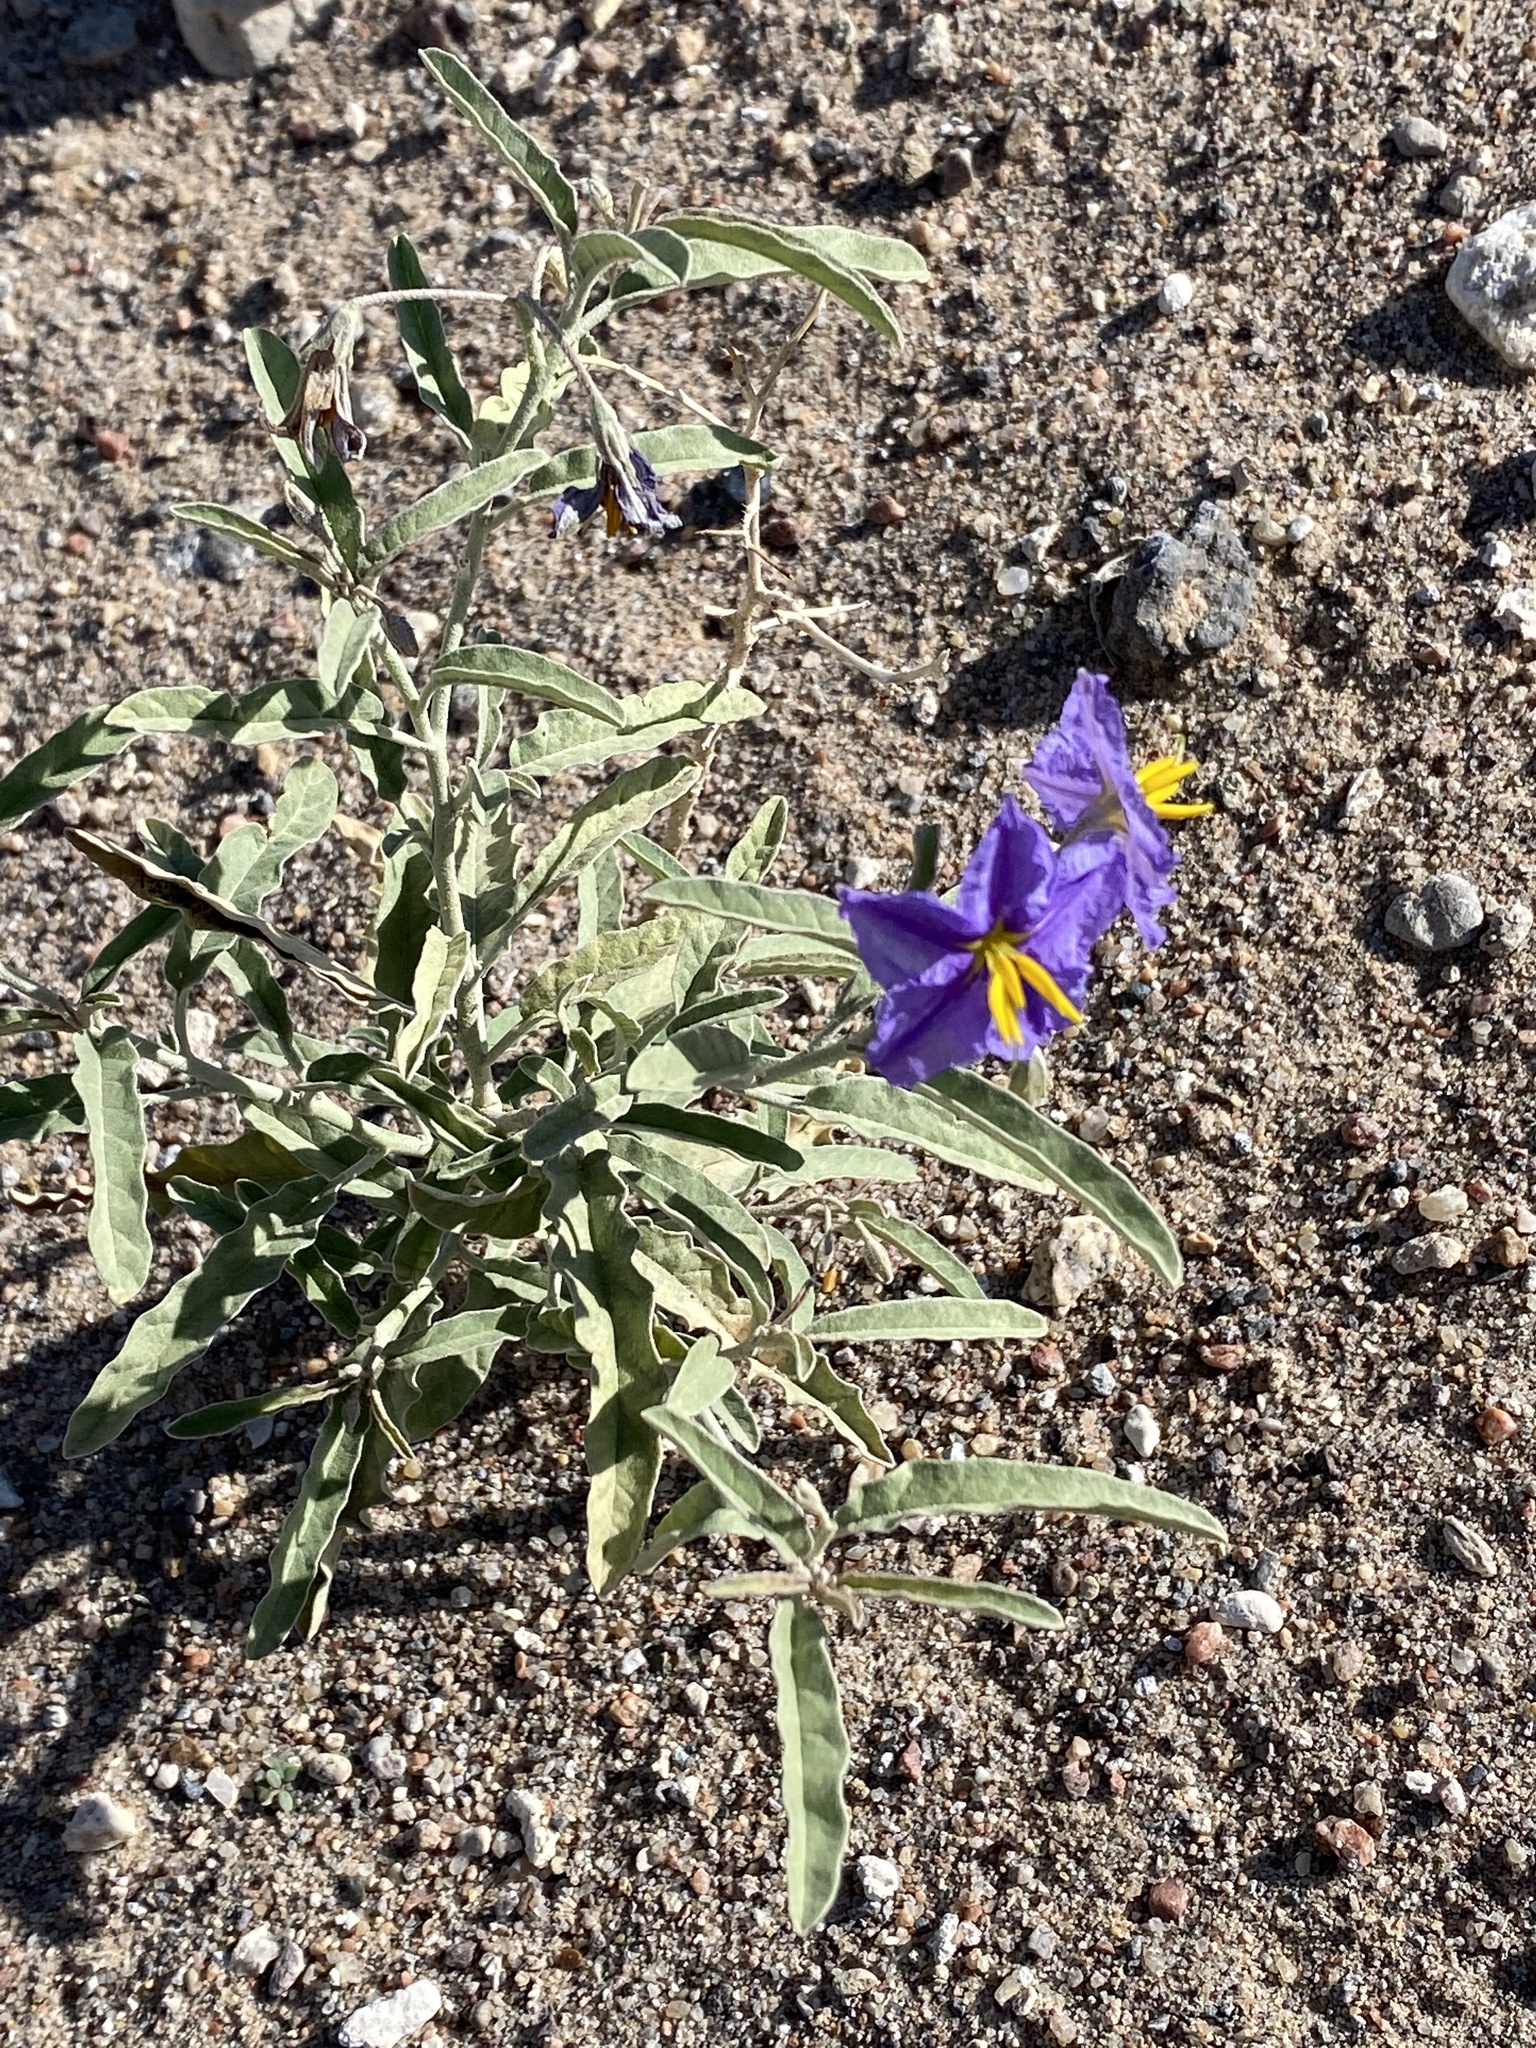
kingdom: Plantae
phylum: Tracheophyta
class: Magnoliopsida
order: Solanales
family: Solanaceae
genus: Solanum
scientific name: Solanum elaeagnifolium
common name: Silverleaf nightshade
